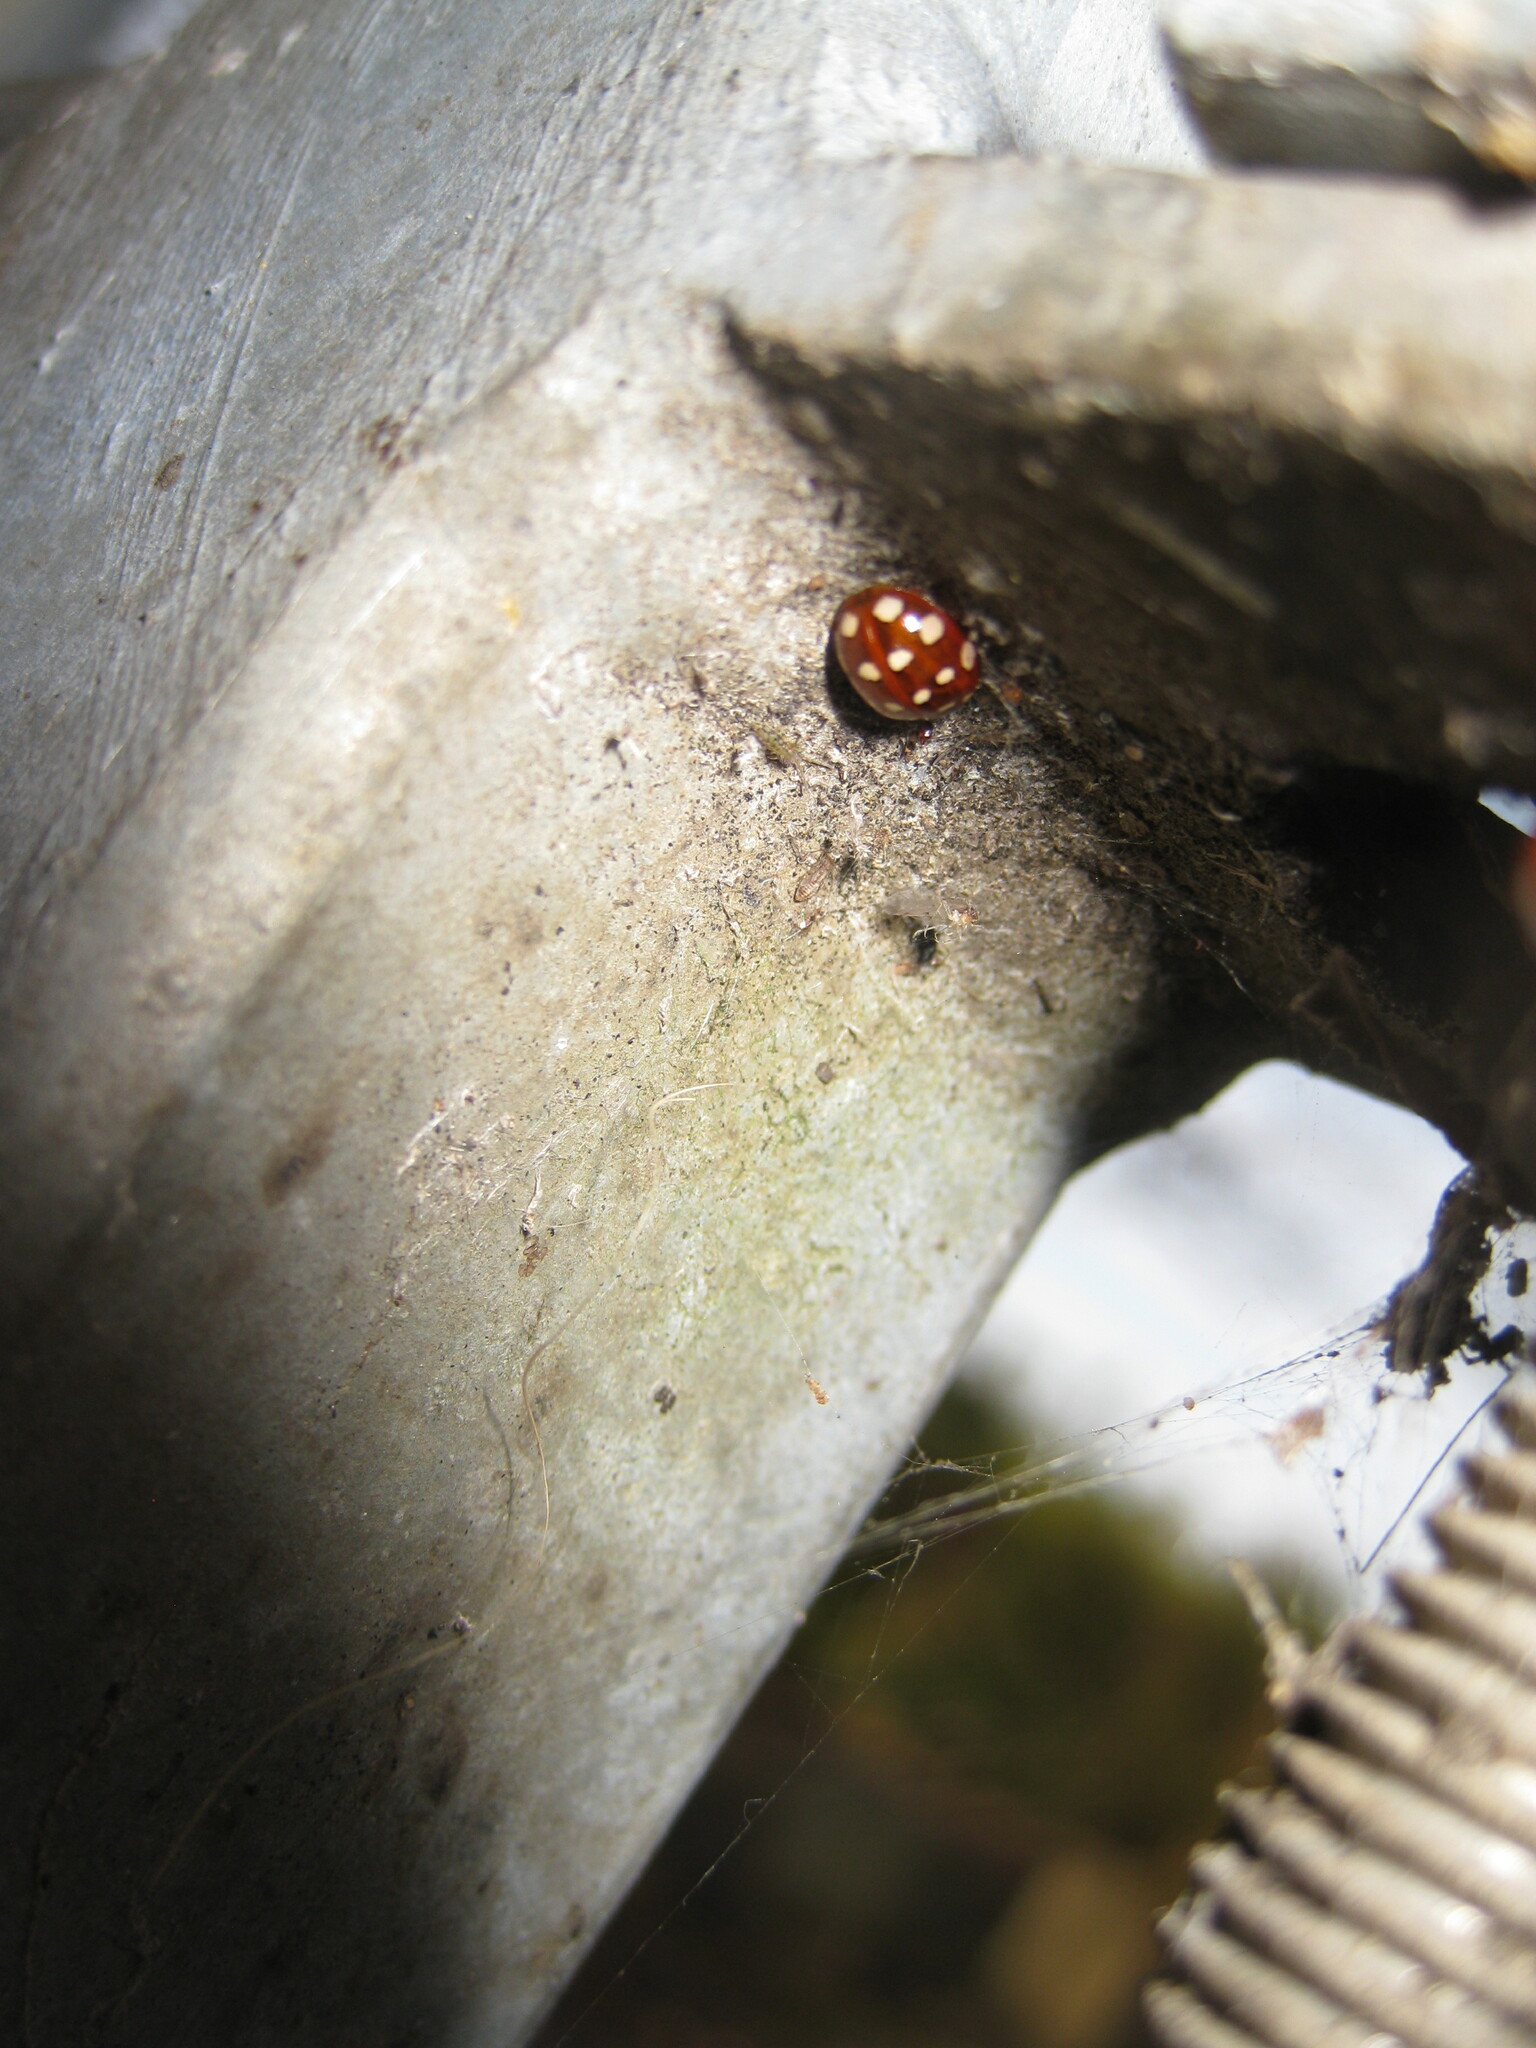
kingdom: Animalia
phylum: Arthropoda
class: Insecta
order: Coleoptera
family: Coccinellidae
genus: Calvia
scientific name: Calvia quatuordecimguttata
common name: Cream-spot ladybird
